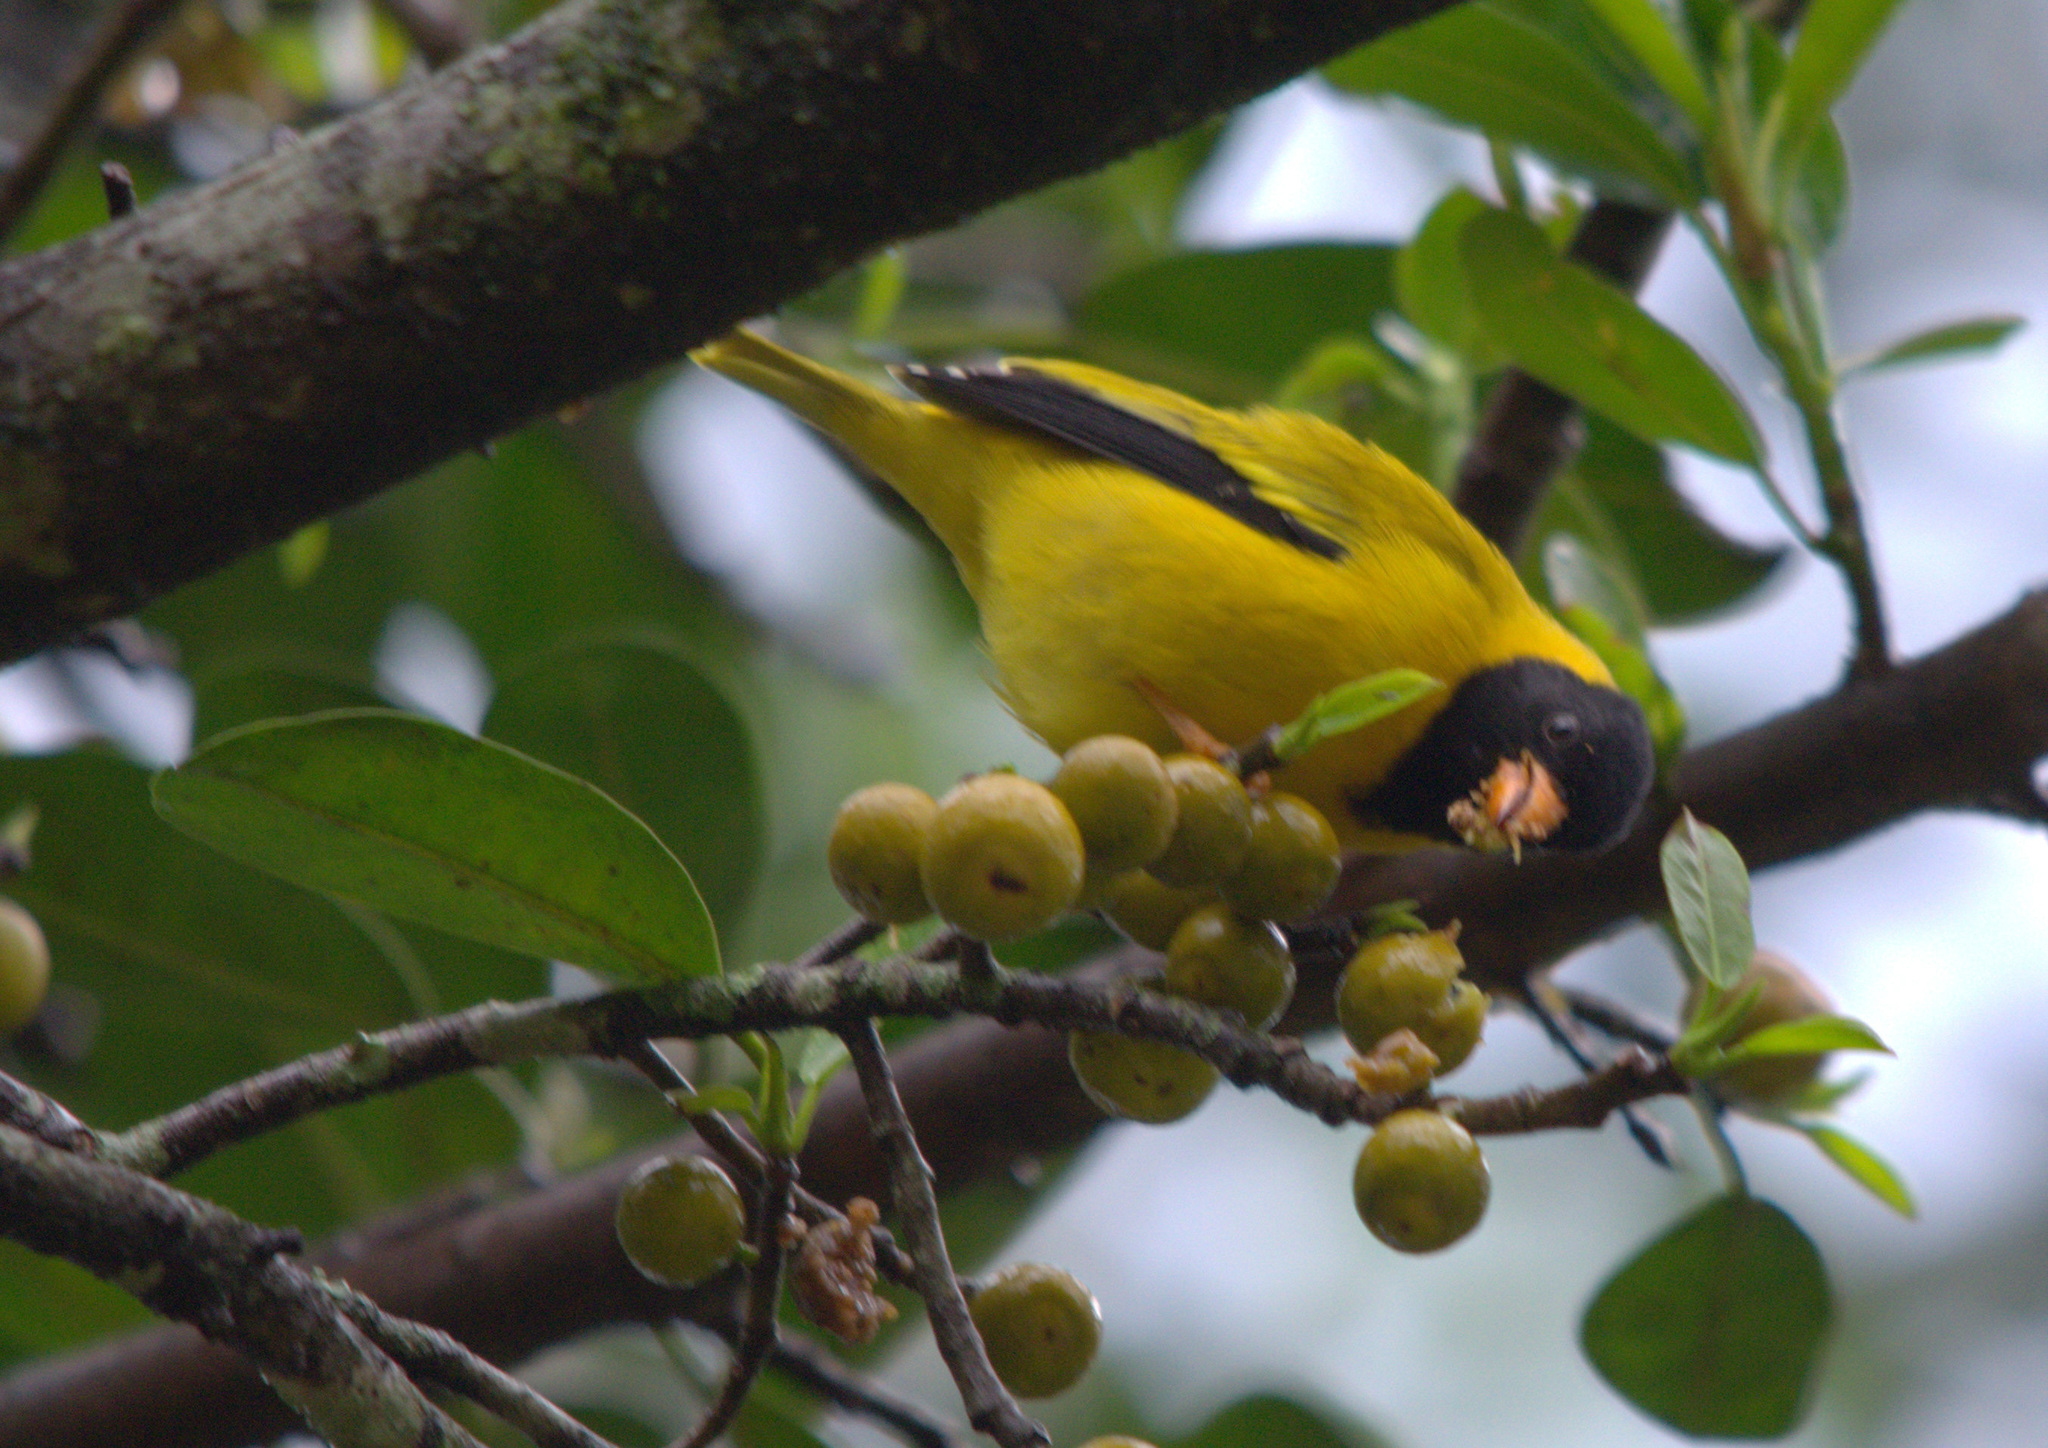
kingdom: Animalia
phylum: Chordata
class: Aves
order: Passeriformes
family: Fringillidae
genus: Linurgus
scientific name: Linurgus olivaceus
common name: Oriole finch
